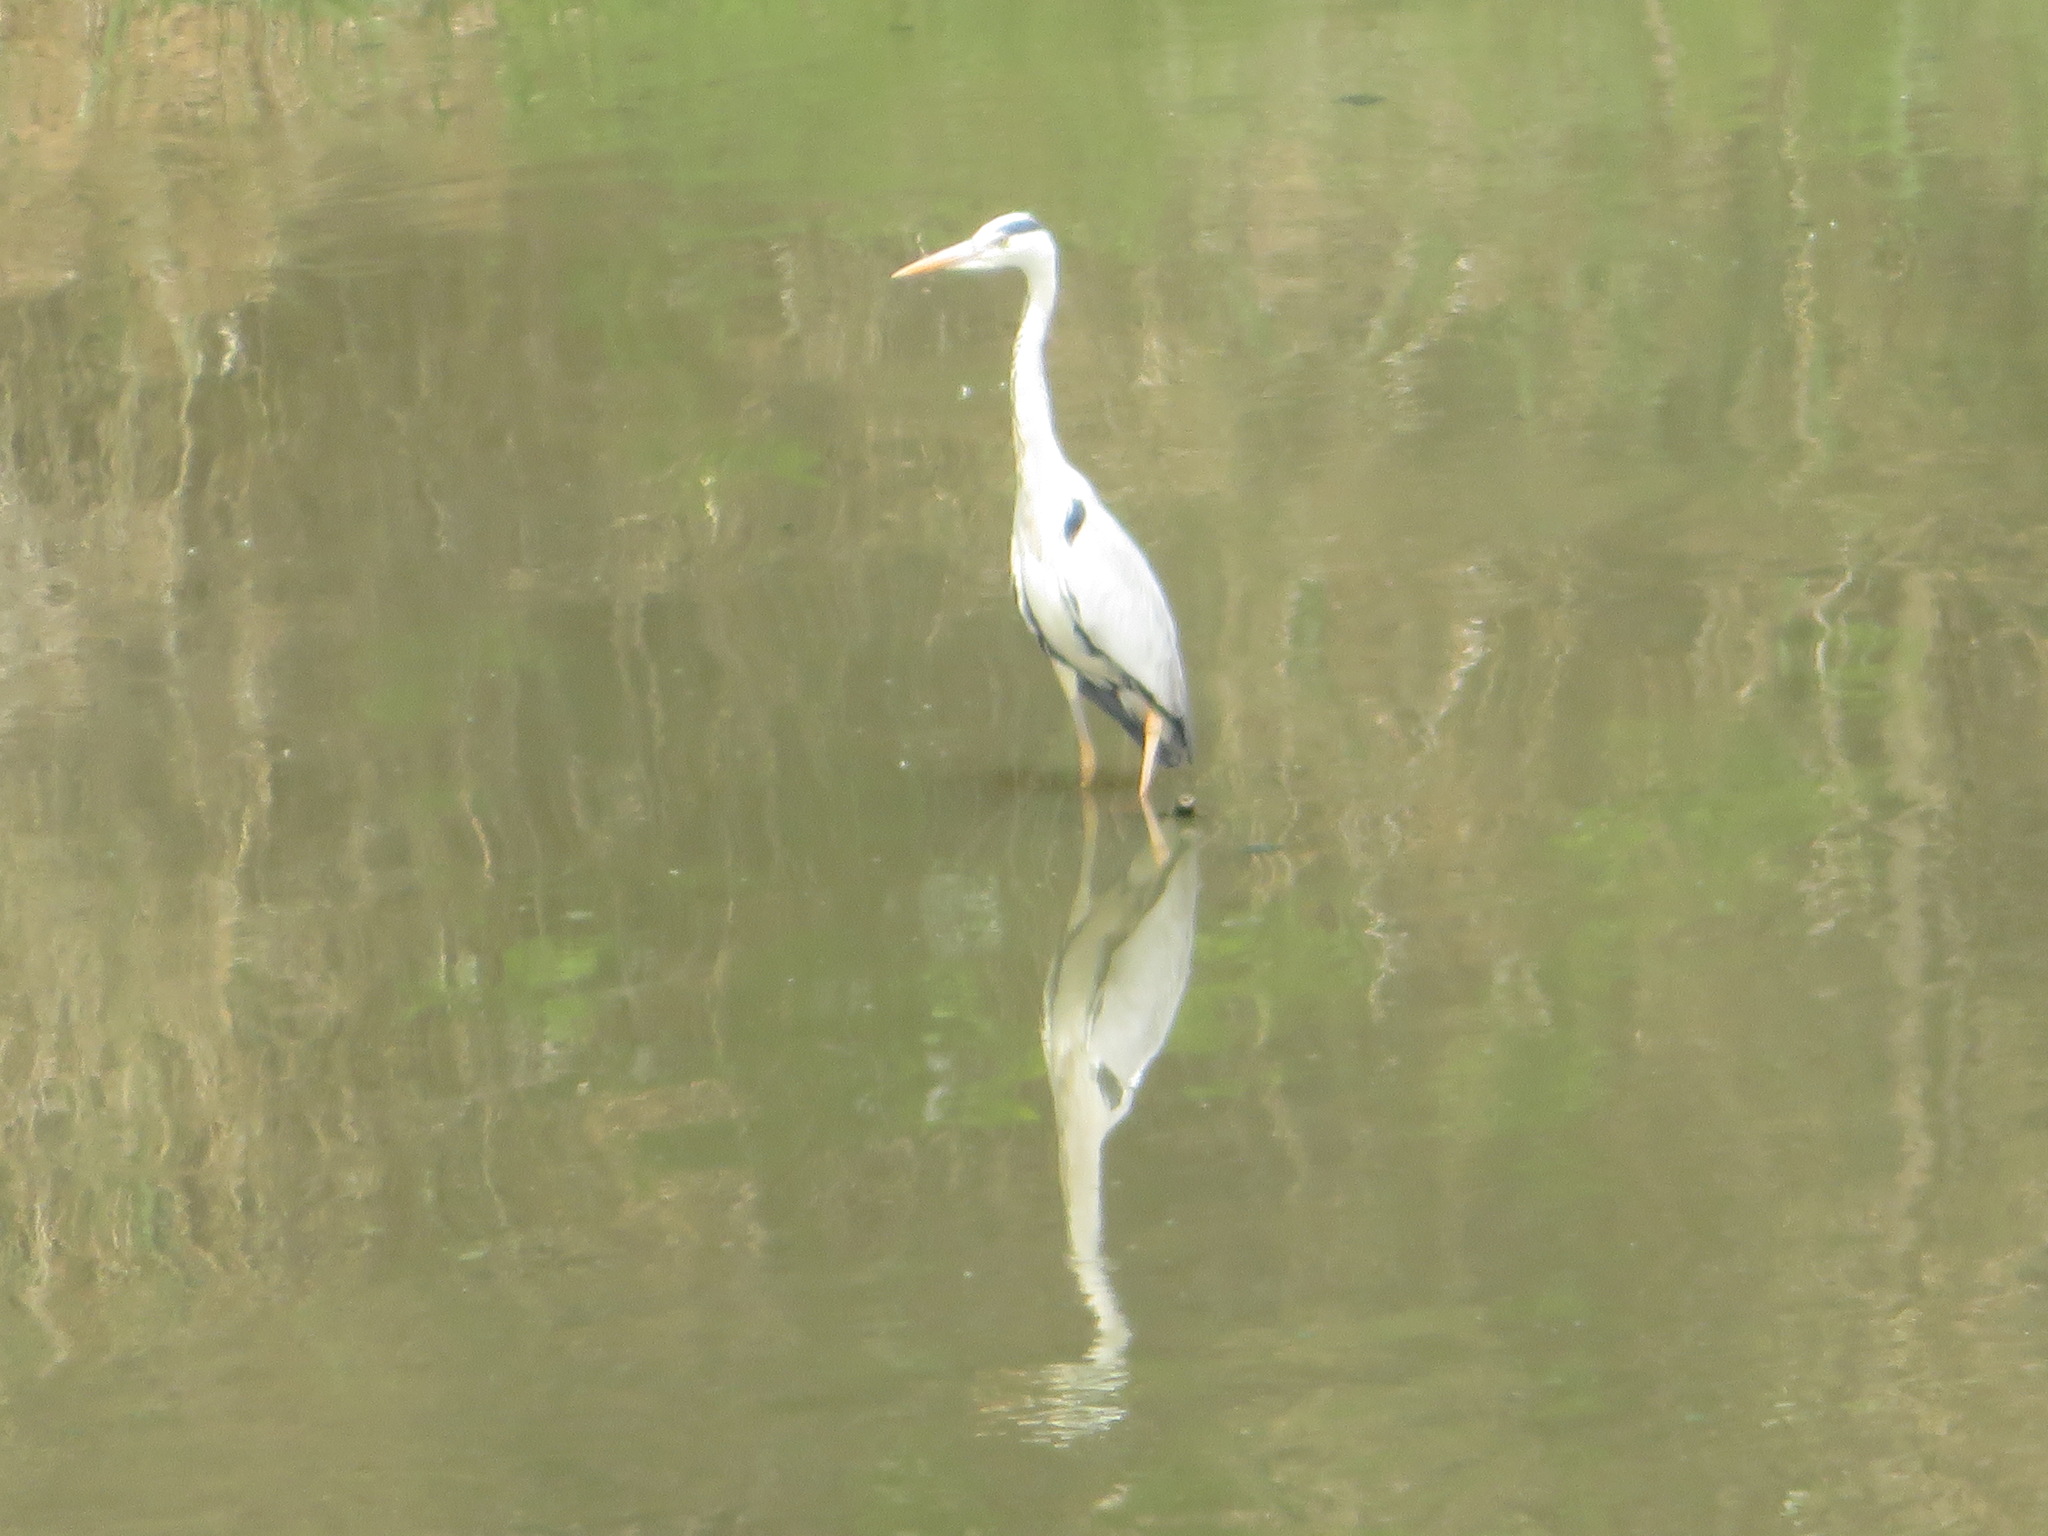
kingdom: Animalia
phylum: Chordata
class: Aves
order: Pelecaniformes
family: Ardeidae
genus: Ardea
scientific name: Ardea cinerea
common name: Grey heron
